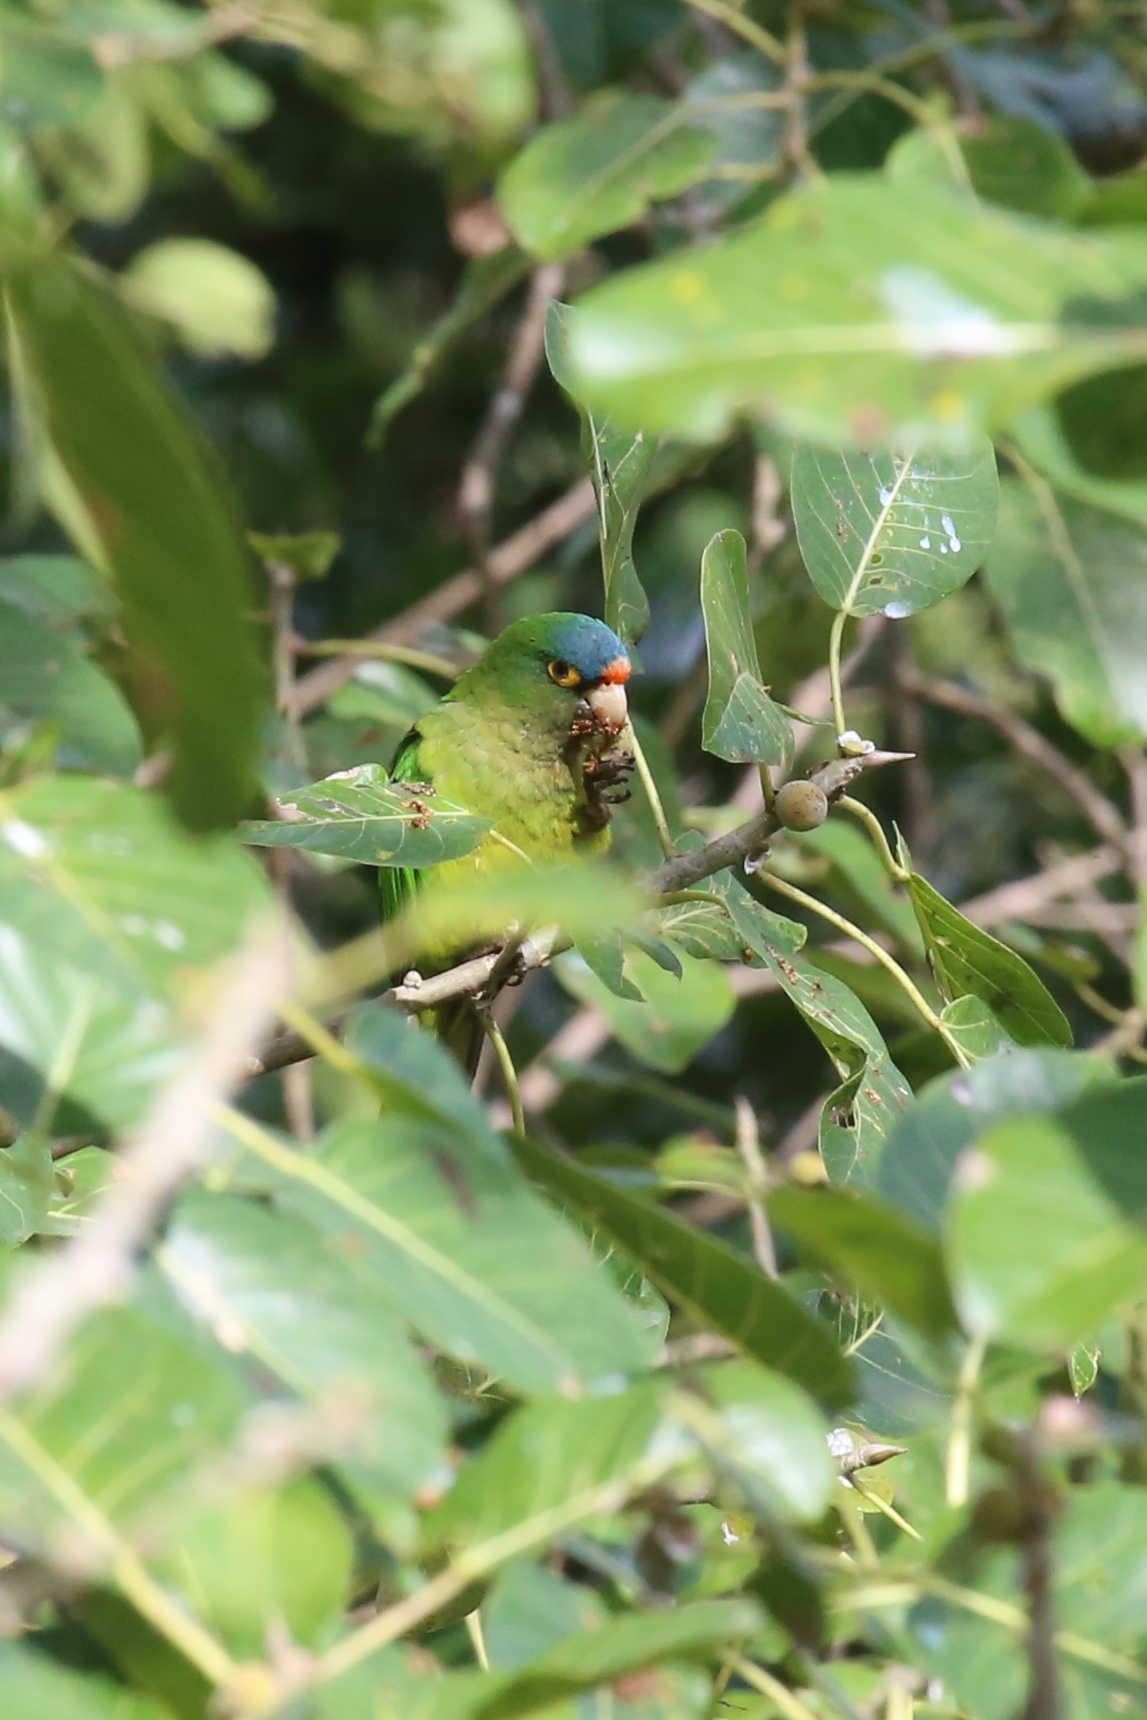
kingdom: Animalia
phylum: Chordata
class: Aves
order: Psittaciformes
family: Psittacidae
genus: Aratinga
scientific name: Aratinga canicularis
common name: Orange-fronted parakeet
